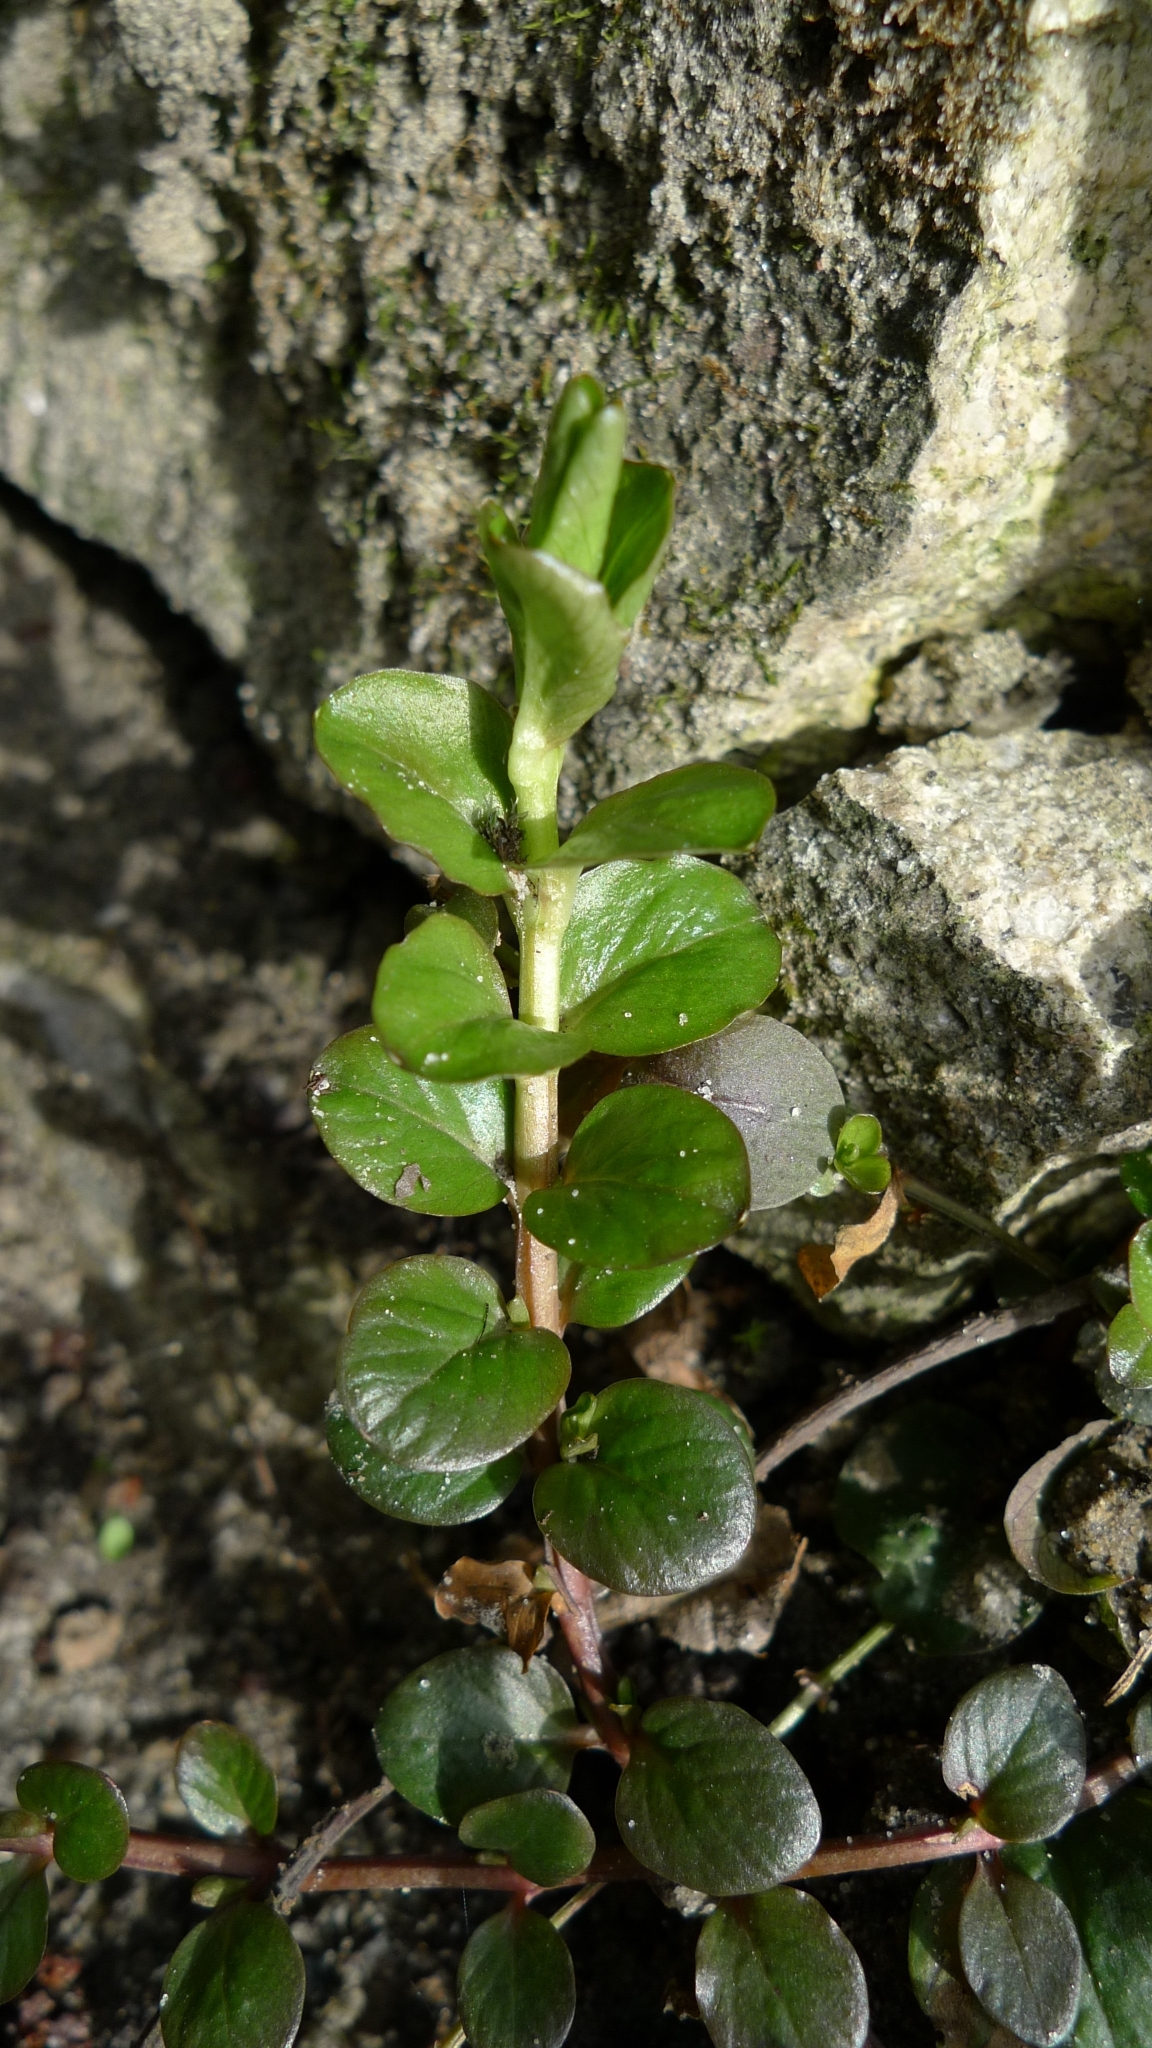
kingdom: Plantae
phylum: Tracheophyta
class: Magnoliopsida
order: Ericales
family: Primulaceae
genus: Lysimachia
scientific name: Lysimachia nummularia
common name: Moneywort
